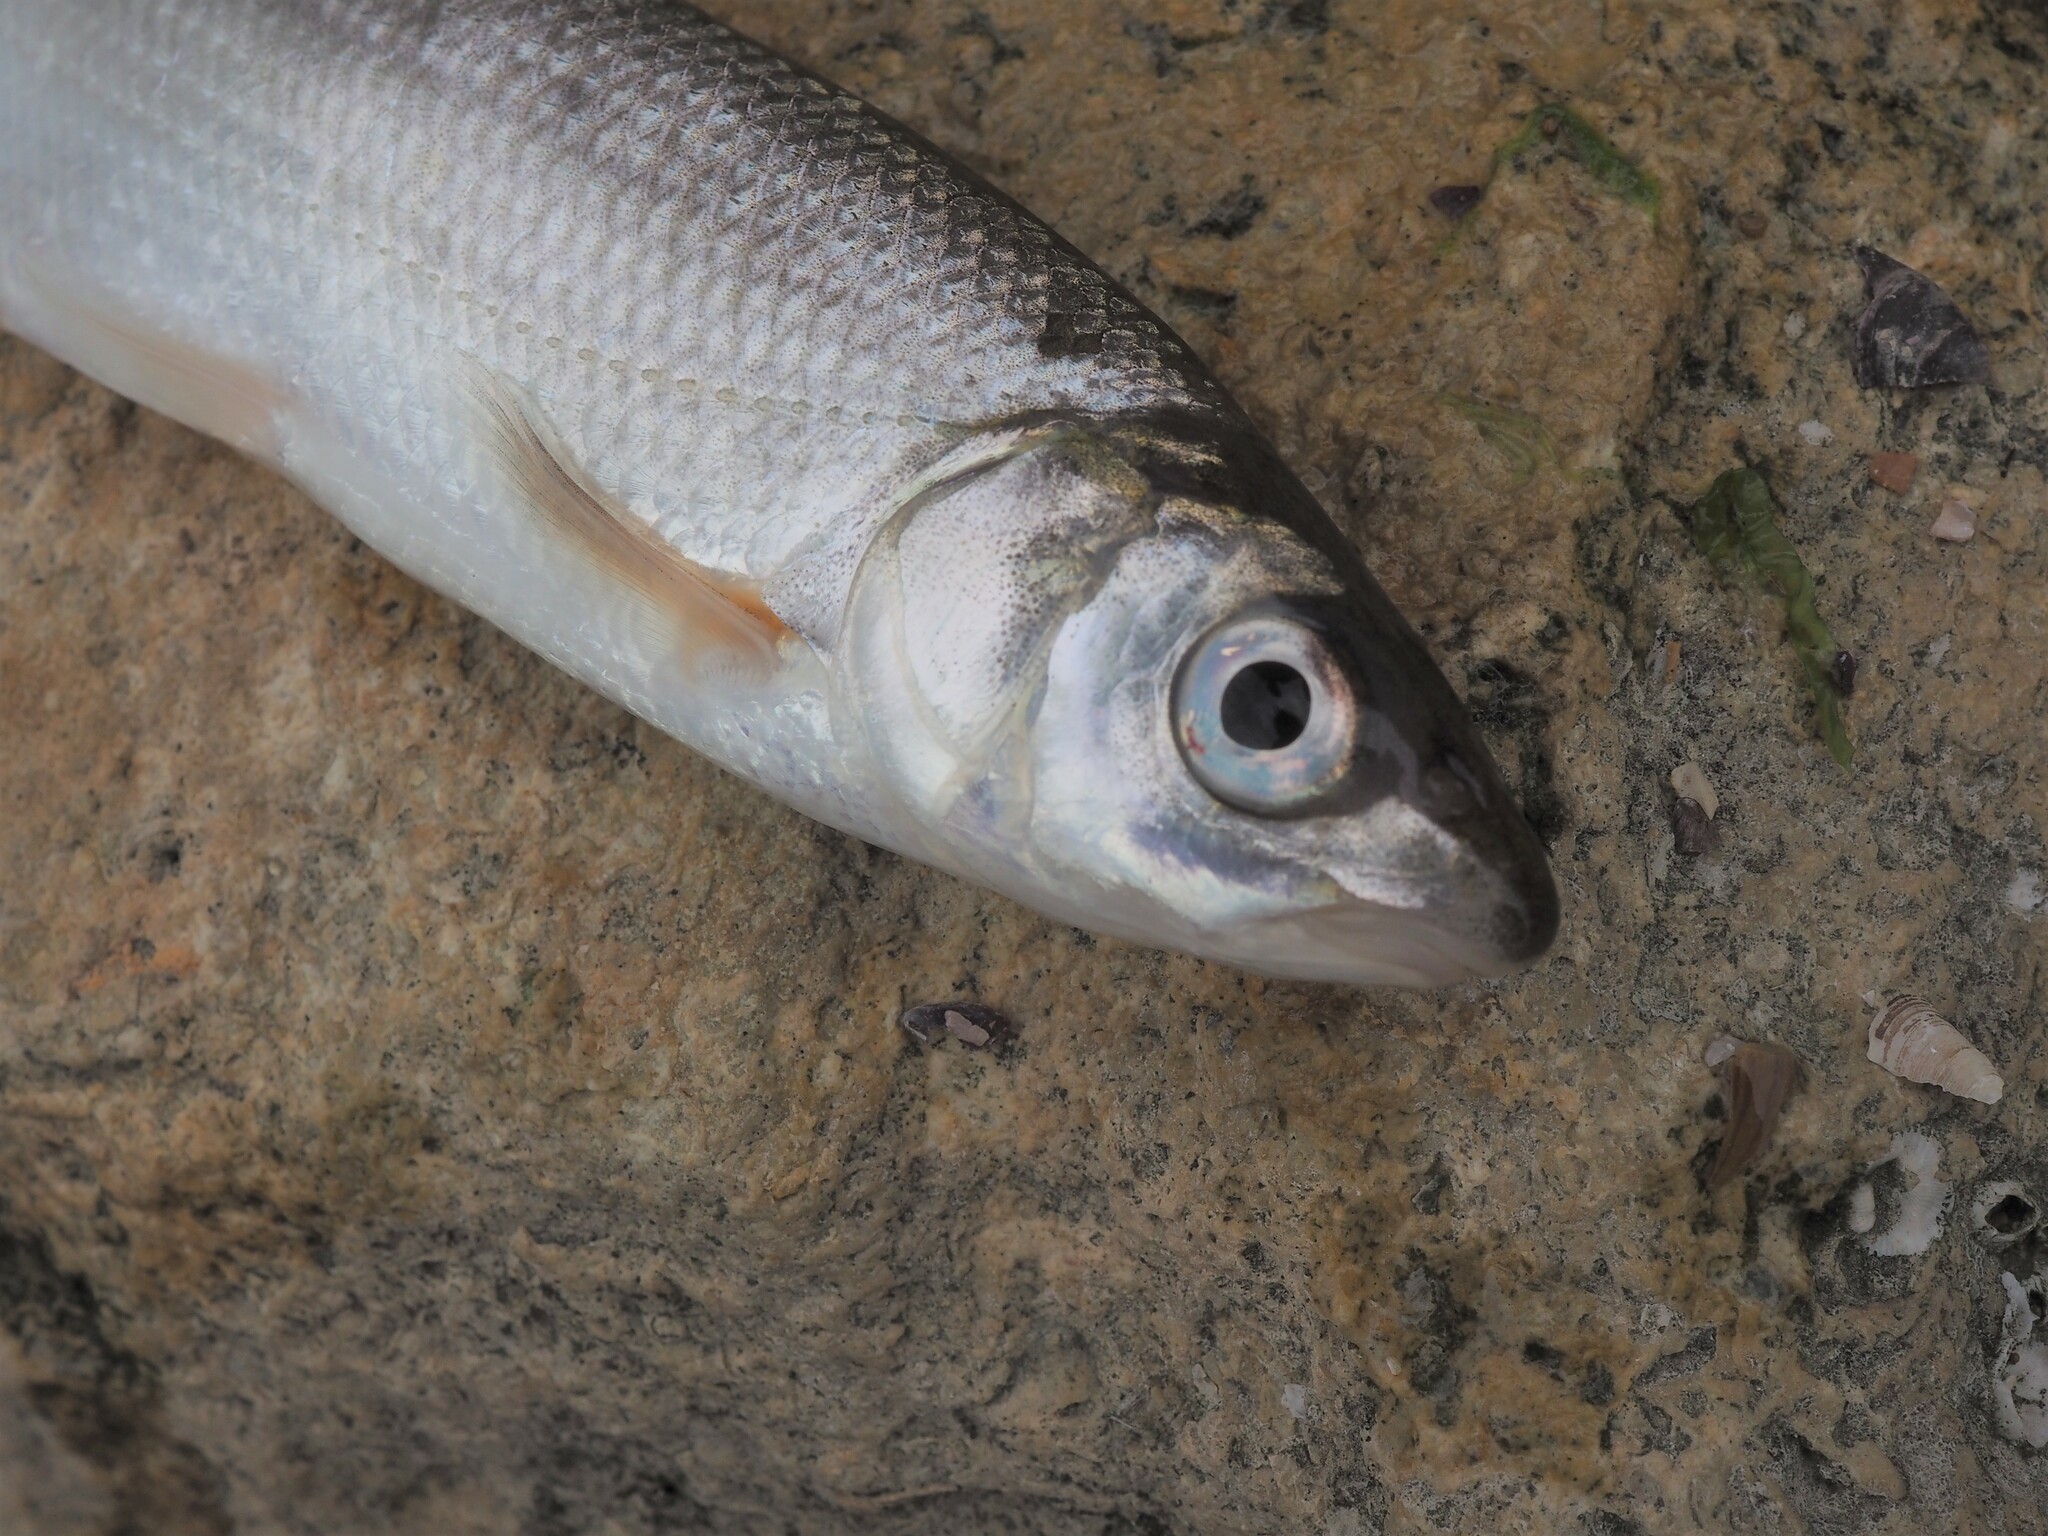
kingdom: Animalia
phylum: Chordata
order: Cypriniformes
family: Cyprinidae
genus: Vimba
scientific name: Vimba vimba
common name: Vimba
